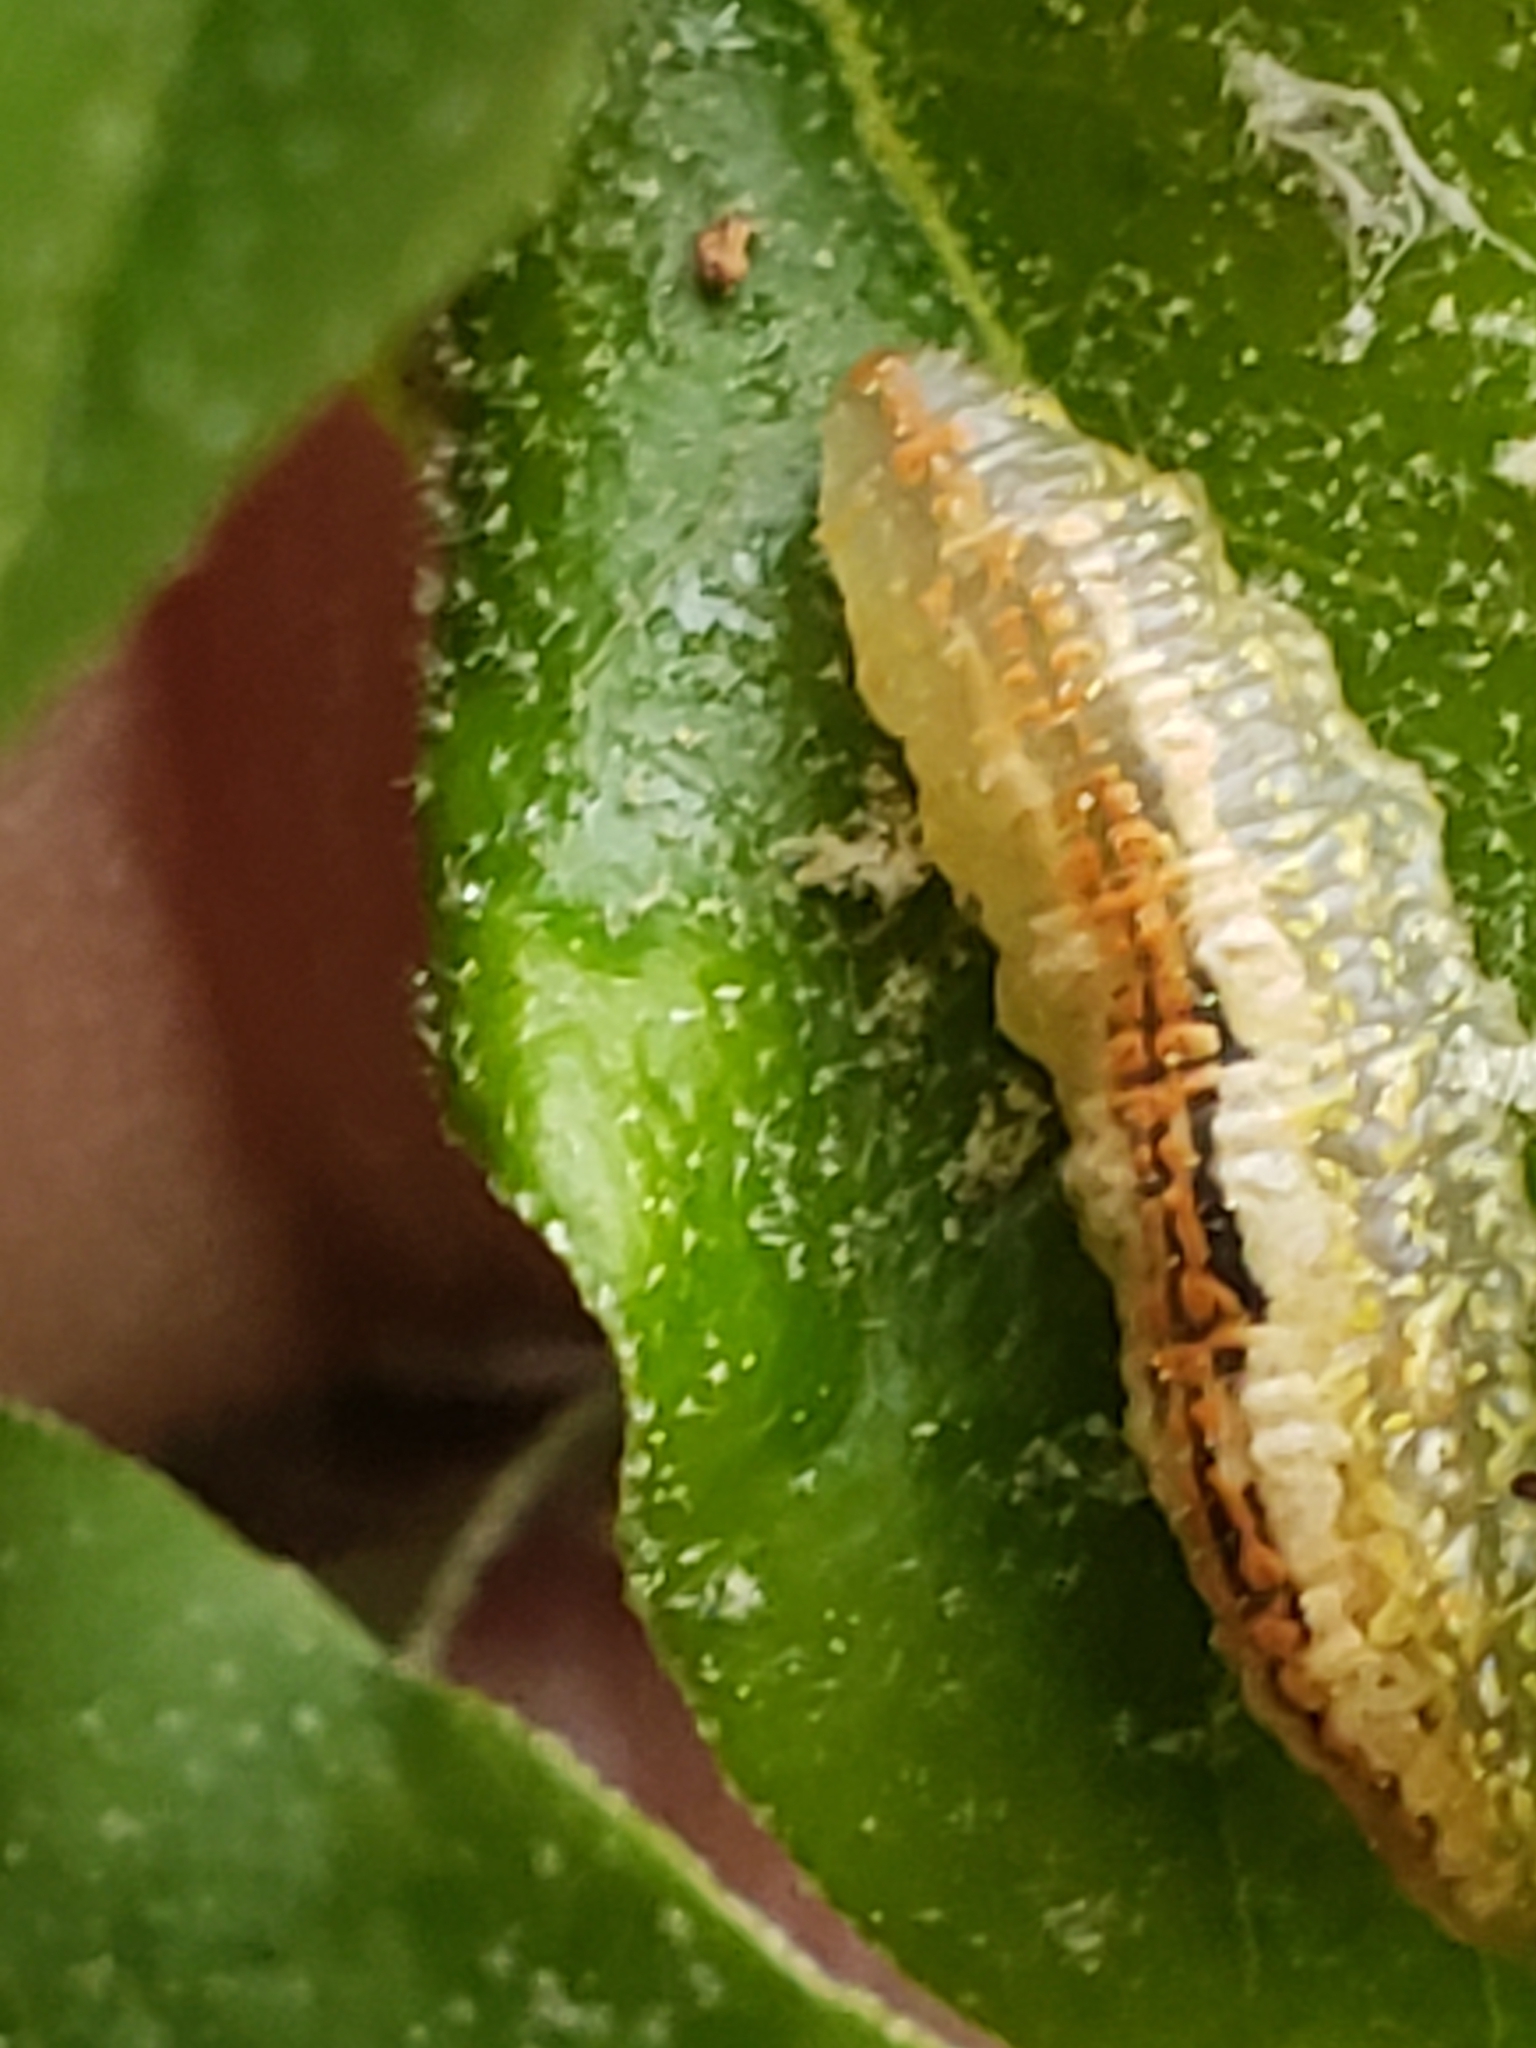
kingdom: Animalia
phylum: Arthropoda
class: Insecta
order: Diptera
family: Syrphidae
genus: Syrphus
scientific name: Syrphus
